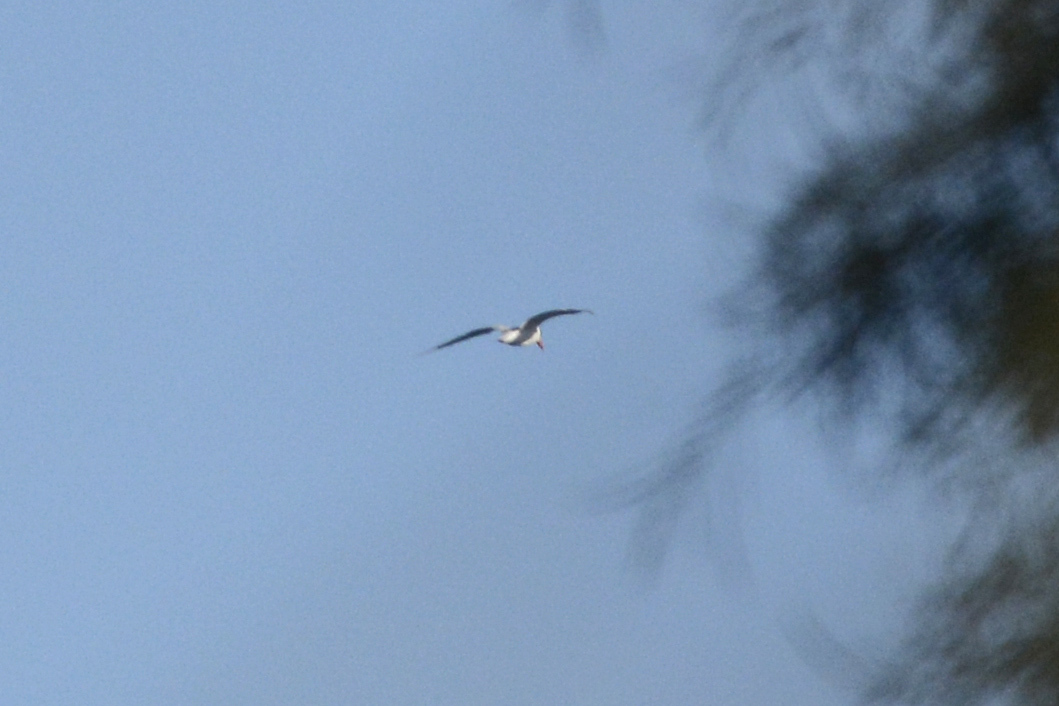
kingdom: Animalia
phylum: Chordata
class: Aves
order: Charadriiformes
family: Laridae
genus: Hydroprogne
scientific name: Hydroprogne caspia
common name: Caspian tern
